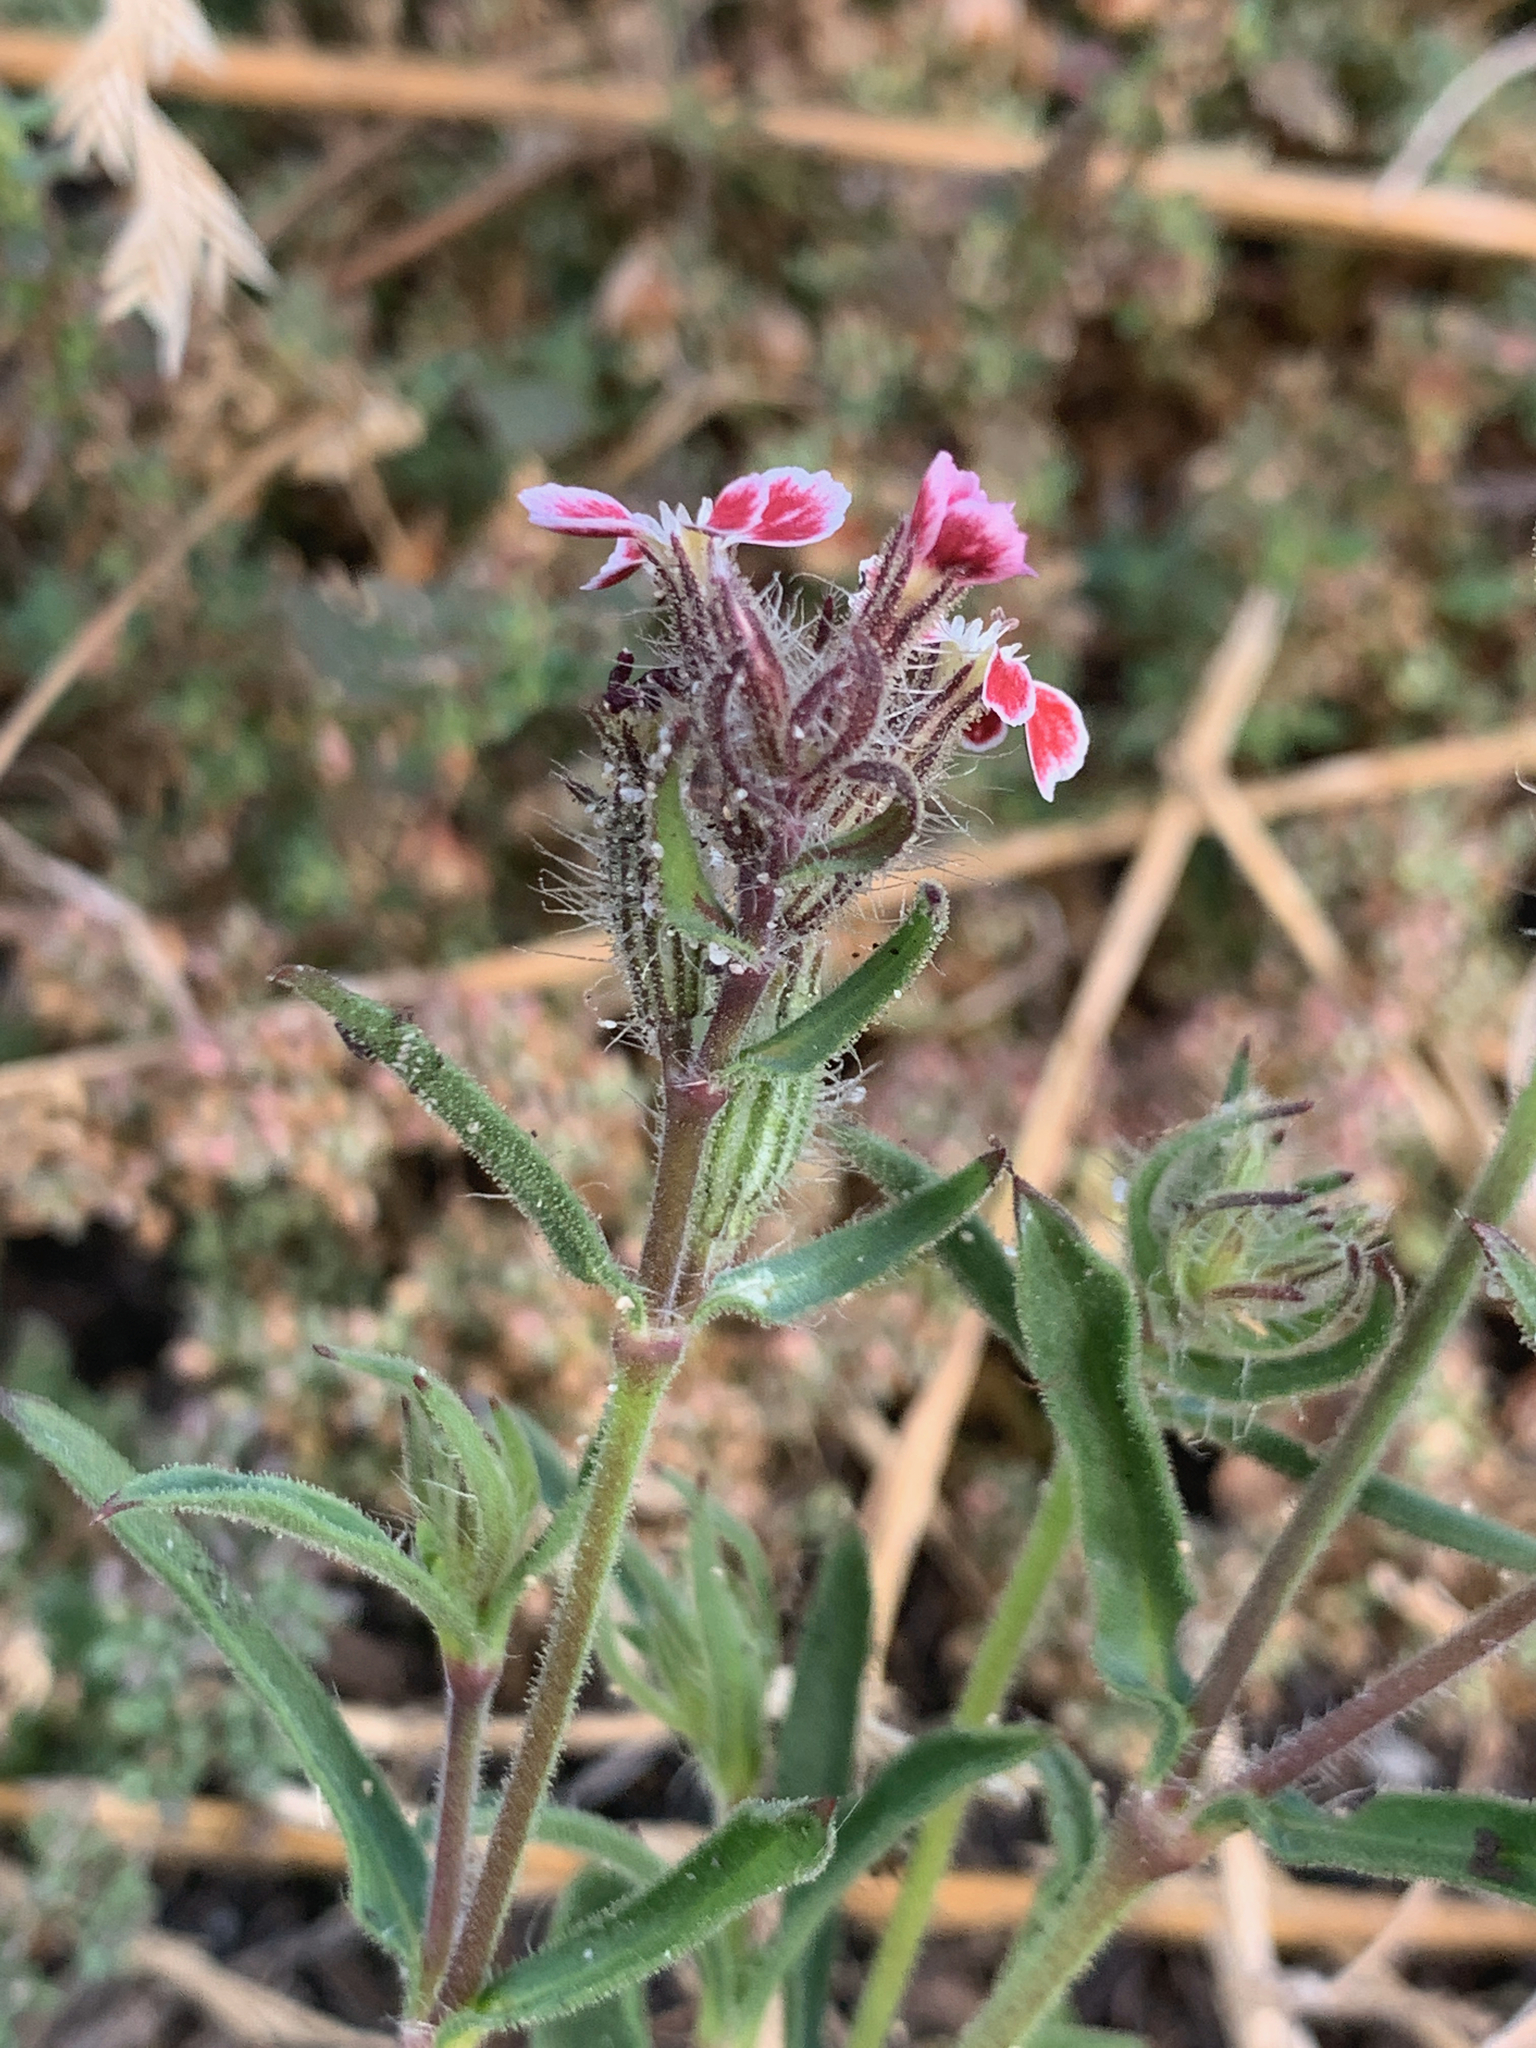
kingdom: Plantae
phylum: Tracheophyta
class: Magnoliopsida
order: Caryophyllales
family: Caryophyllaceae
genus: Silene
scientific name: Silene gallica
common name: Small-flowered catchfly
